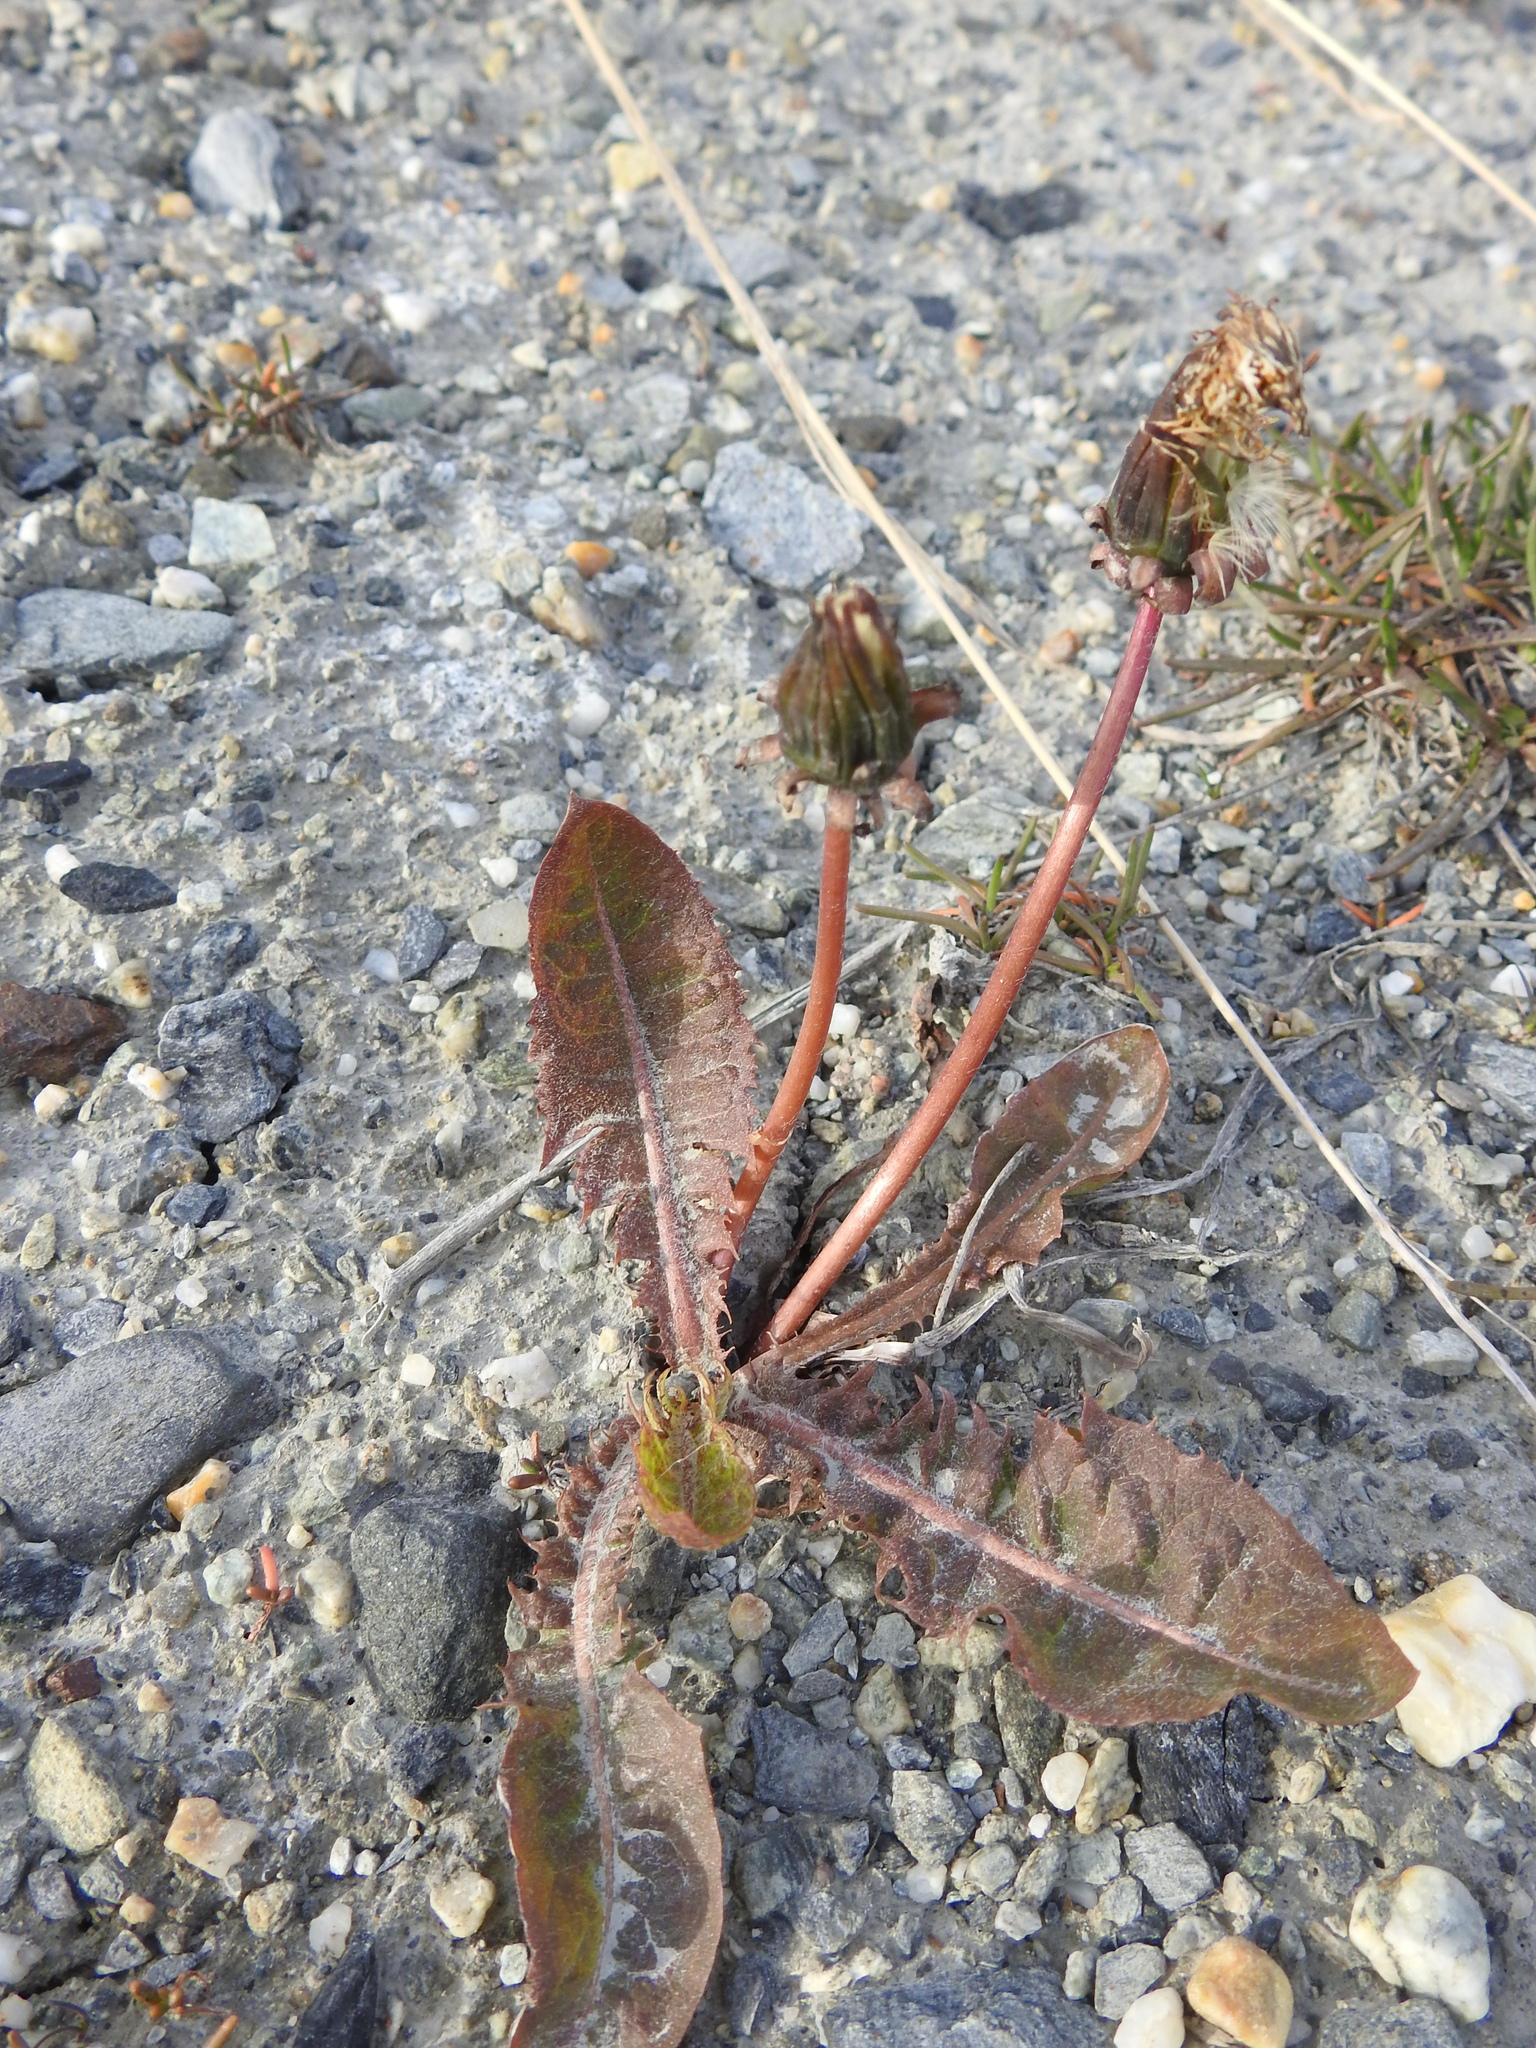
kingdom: Plantae
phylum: Tracheophyta
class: Magnoliopsida
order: Asterales
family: Asteraceae
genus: Taraxacum
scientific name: Taraxacum officinale
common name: Common dandelion
